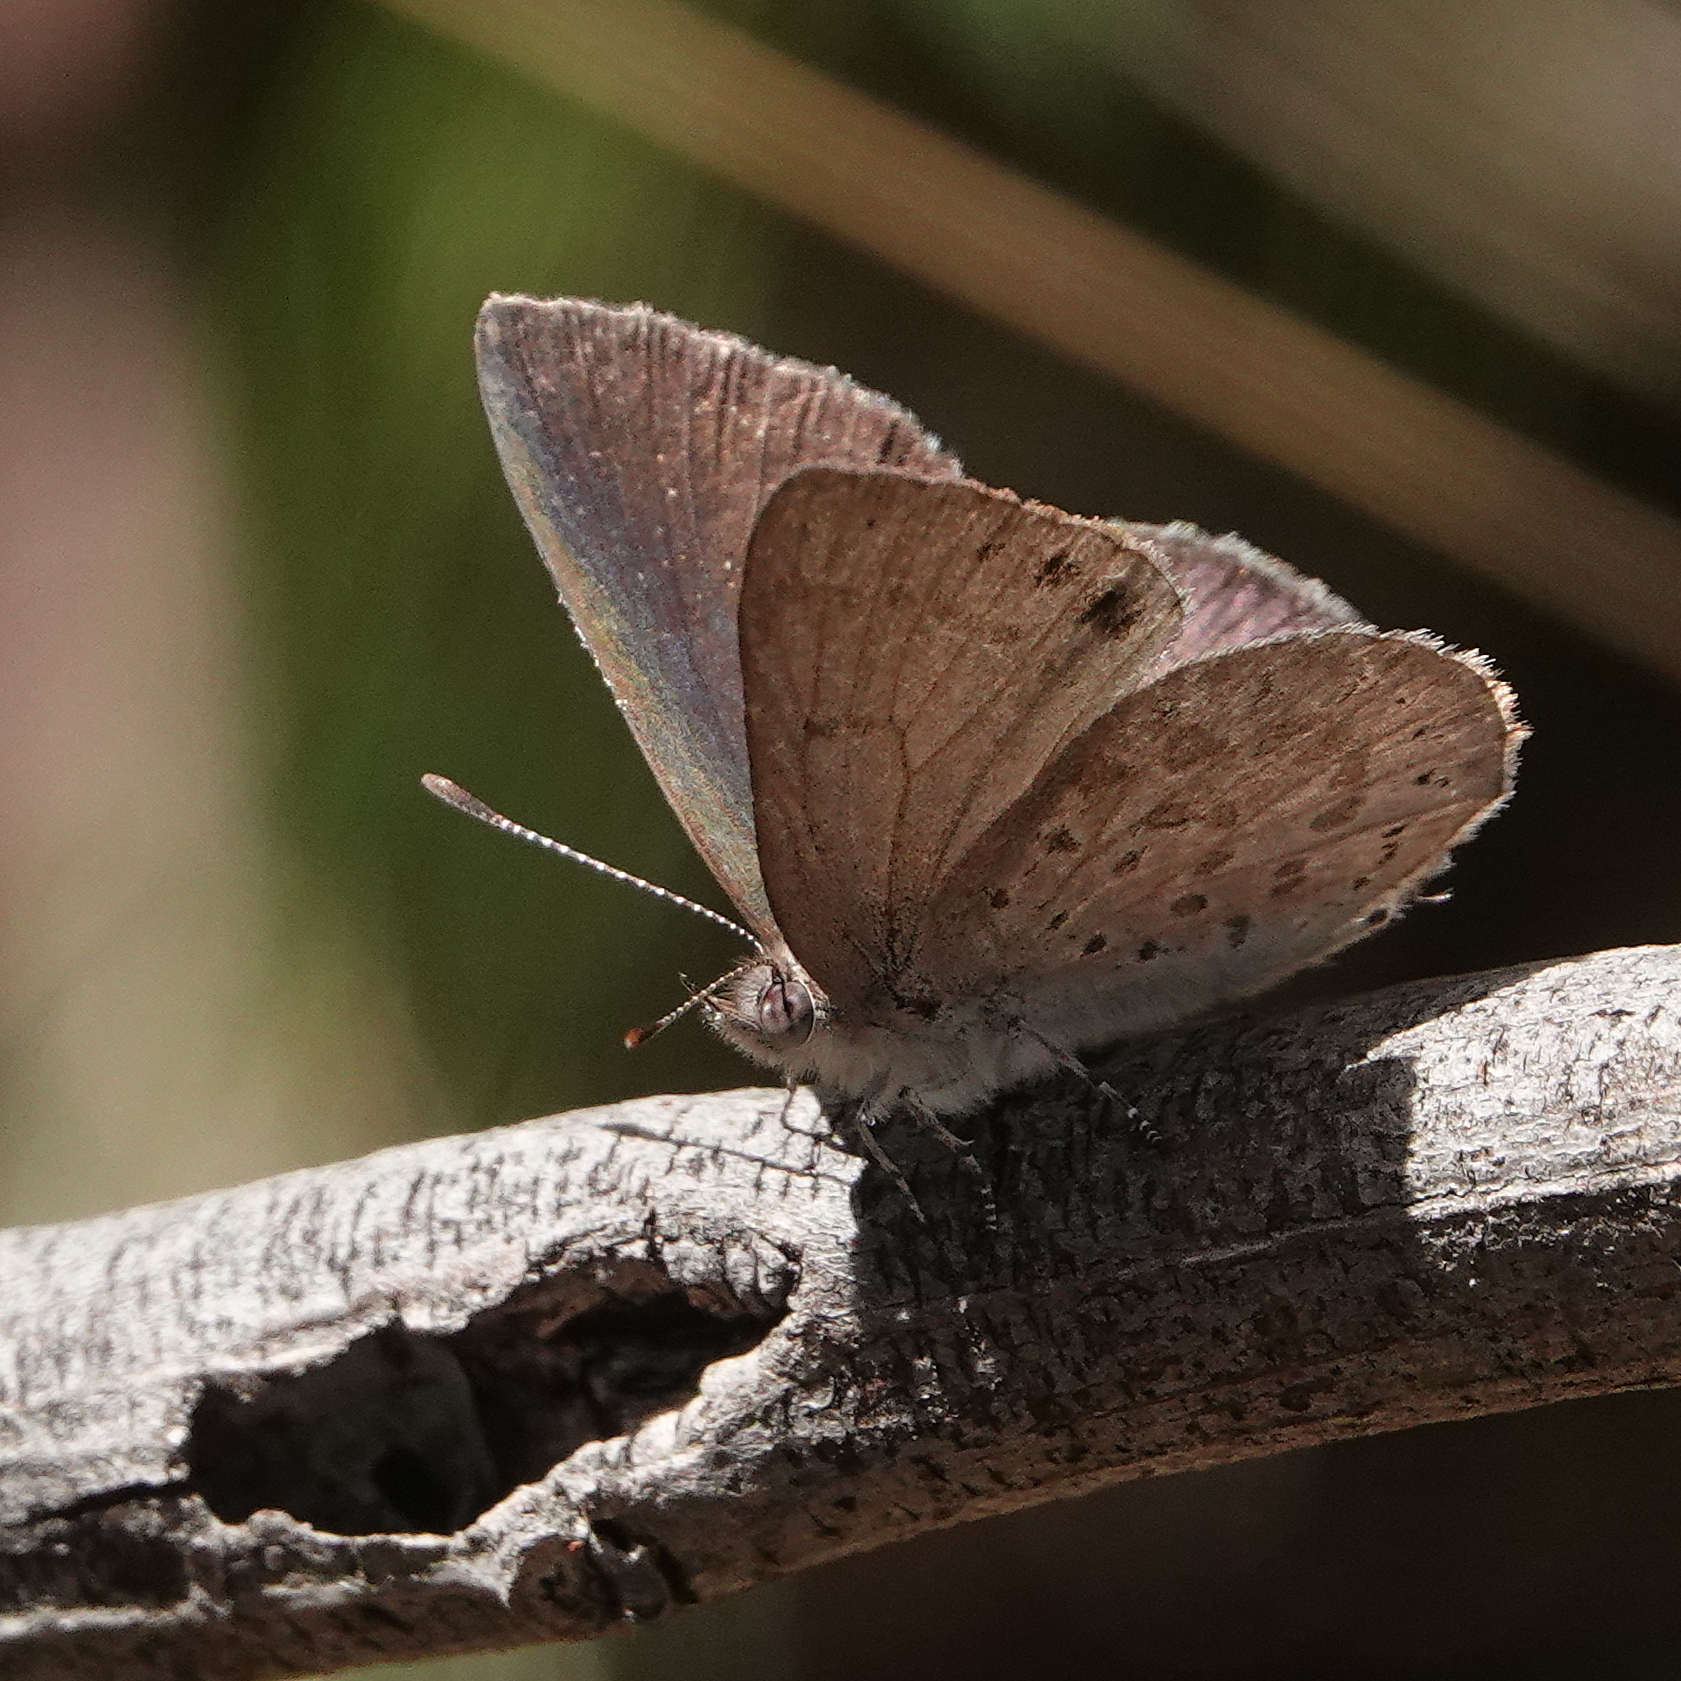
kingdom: Animalia
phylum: Arthropoda
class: Insecta
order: Lepidoptera
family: Lycaenidae
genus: Candalides
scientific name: Candalides
